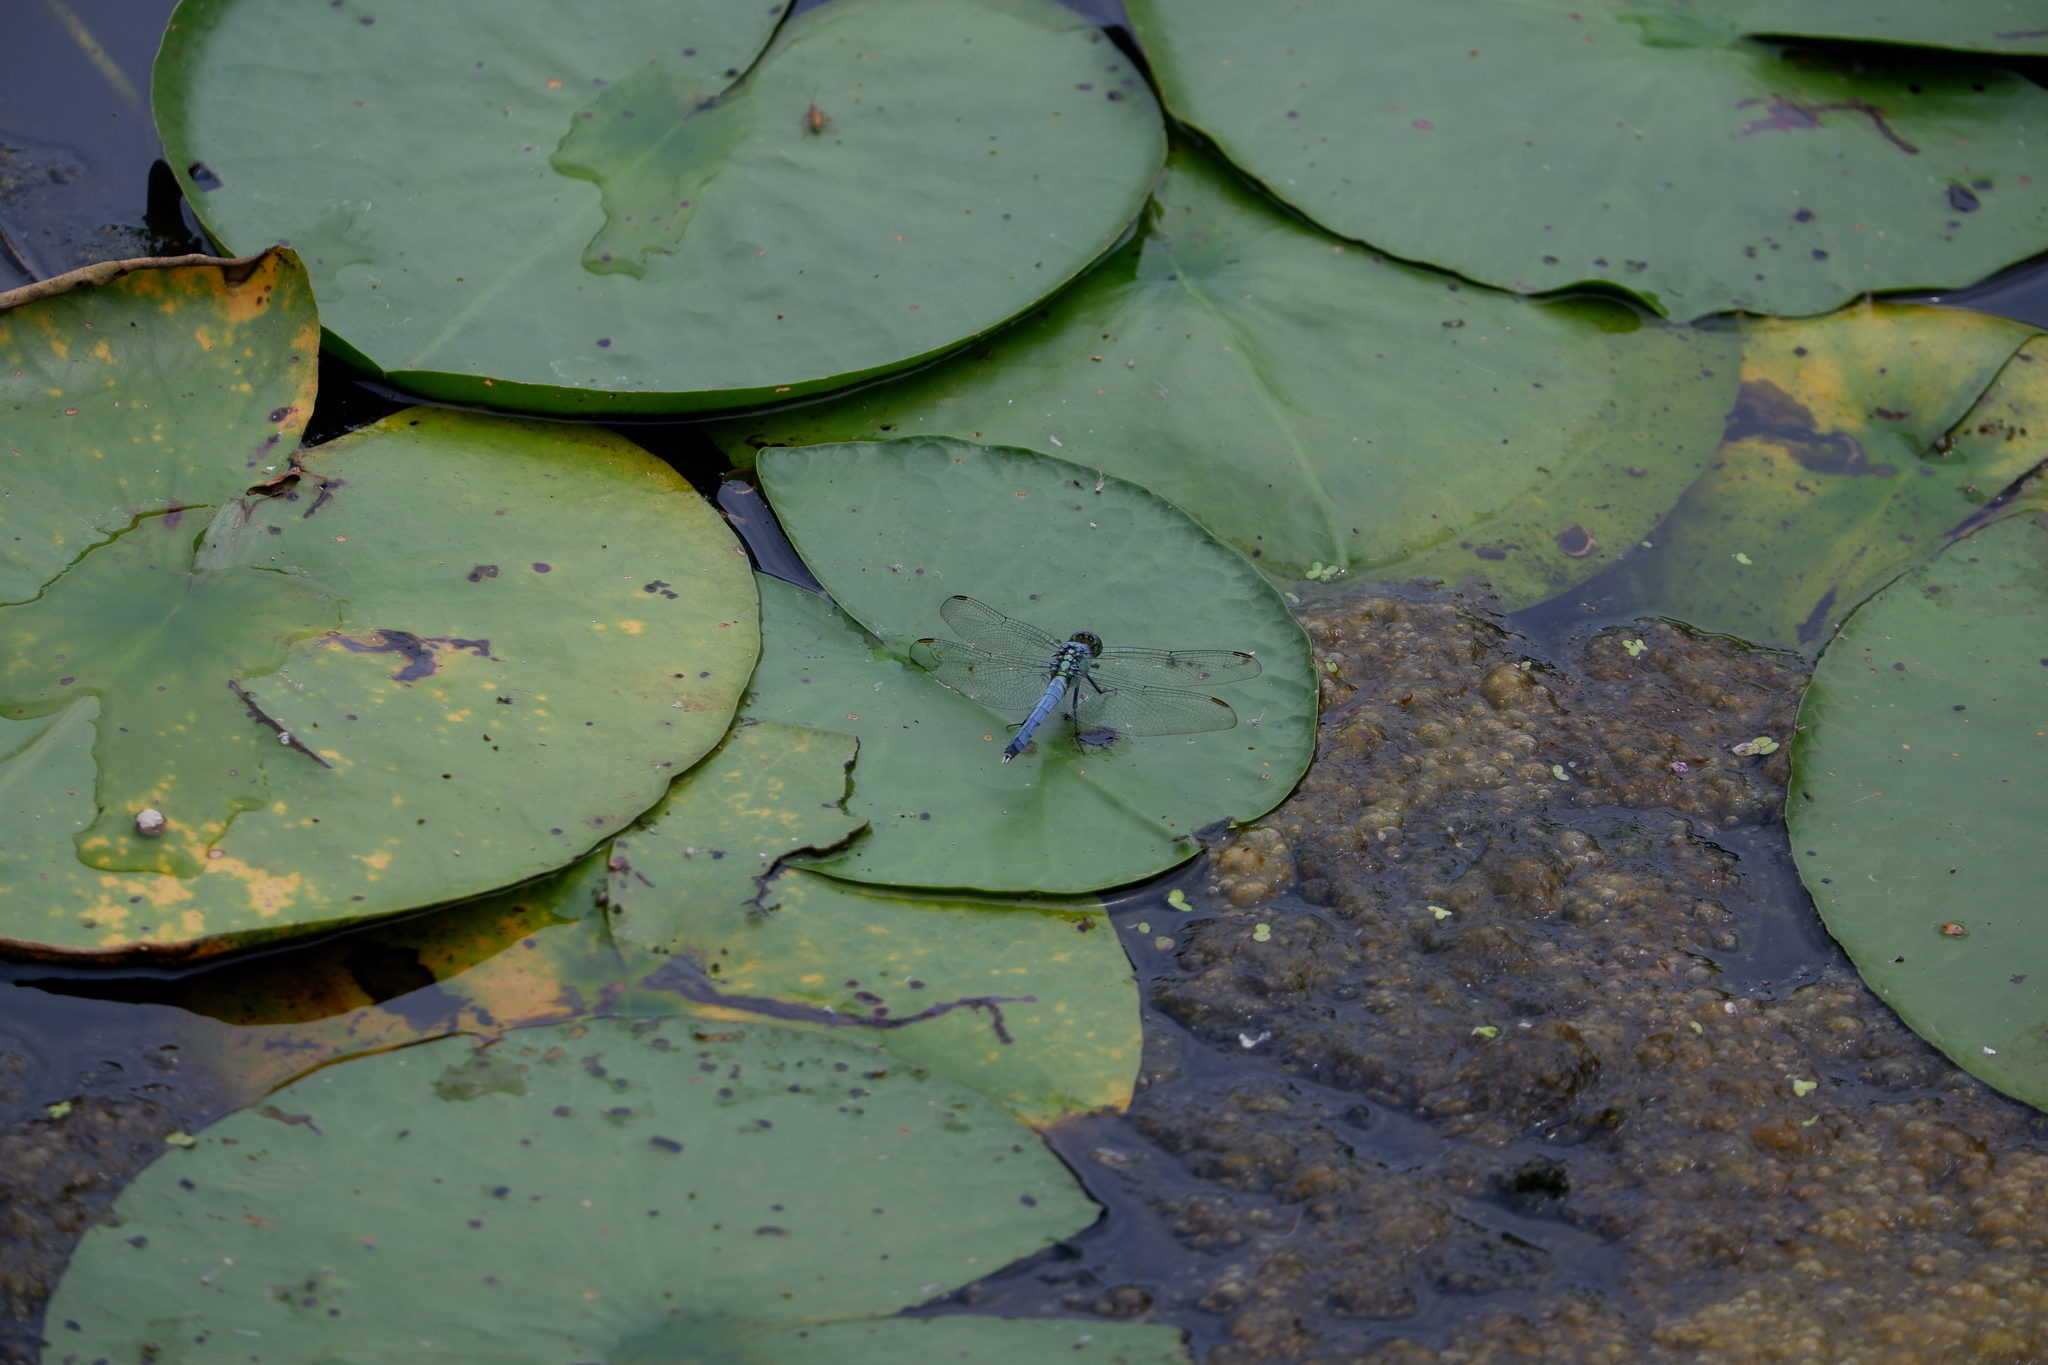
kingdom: Animalia
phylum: Arthropoda
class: Insecta
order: Odonata
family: Libellulidae
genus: Erythemis
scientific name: Erythemis simplicicollis
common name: Eastern pondhawk
